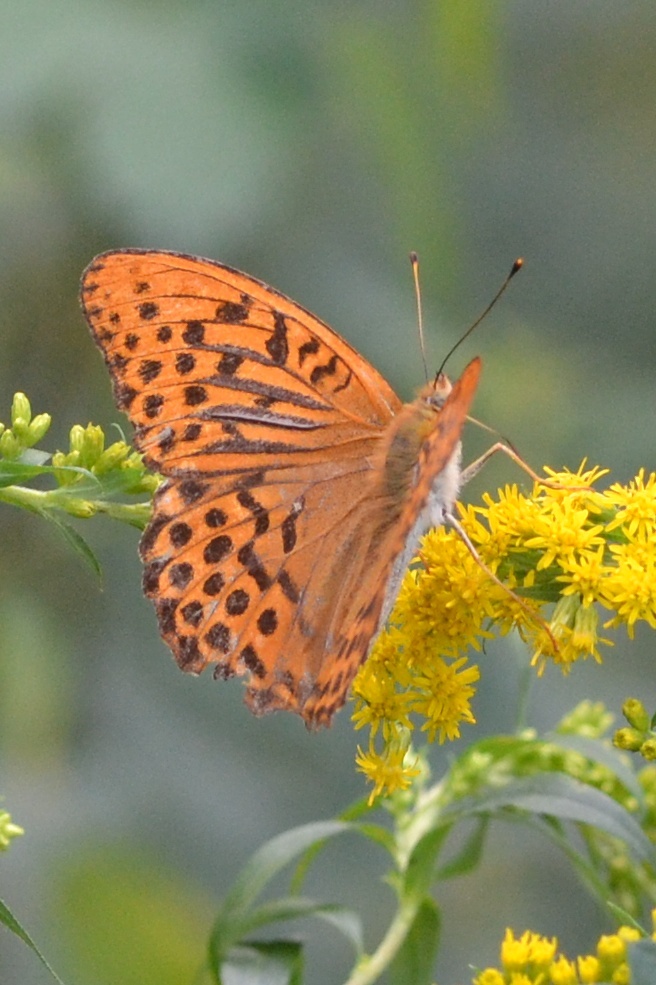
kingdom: Animalia
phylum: Arthropoda
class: Insecta
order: Lepidoptera
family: Nymphalidae
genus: Argynnis
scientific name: Argynnis paphia
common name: Silver-washed fritillary
